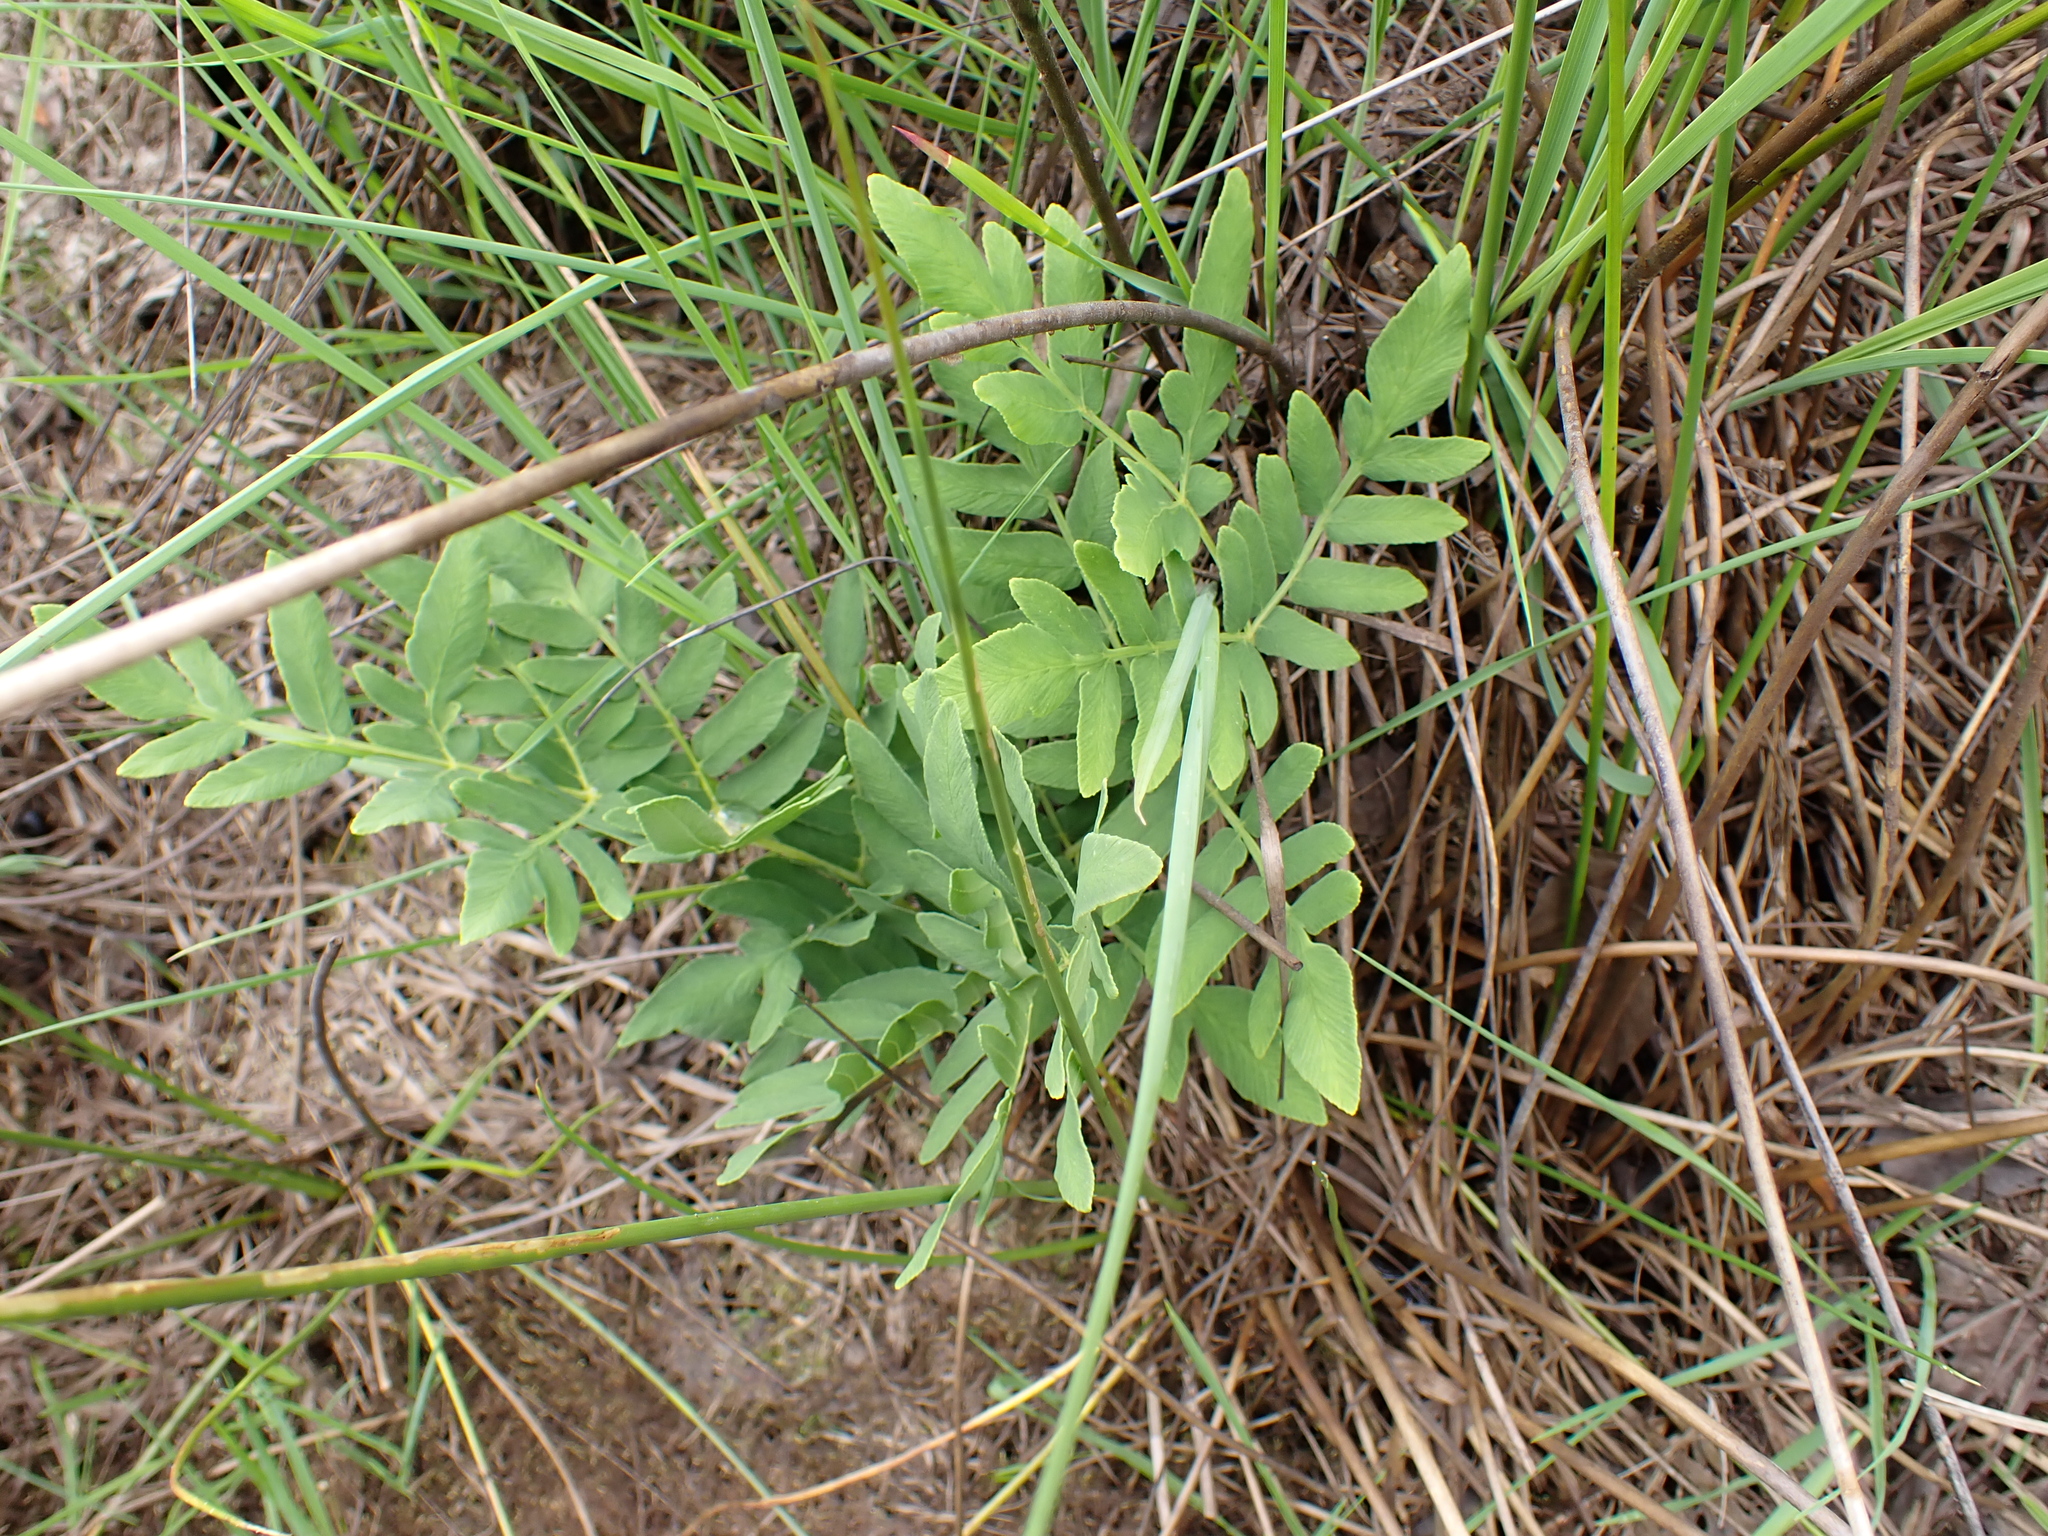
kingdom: Plantae
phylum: Tracheophyta
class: Polypodiopsida
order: Osmundales
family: Osmundaceae
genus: Osmunda
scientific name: Osmunda regalis
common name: Royal fern
